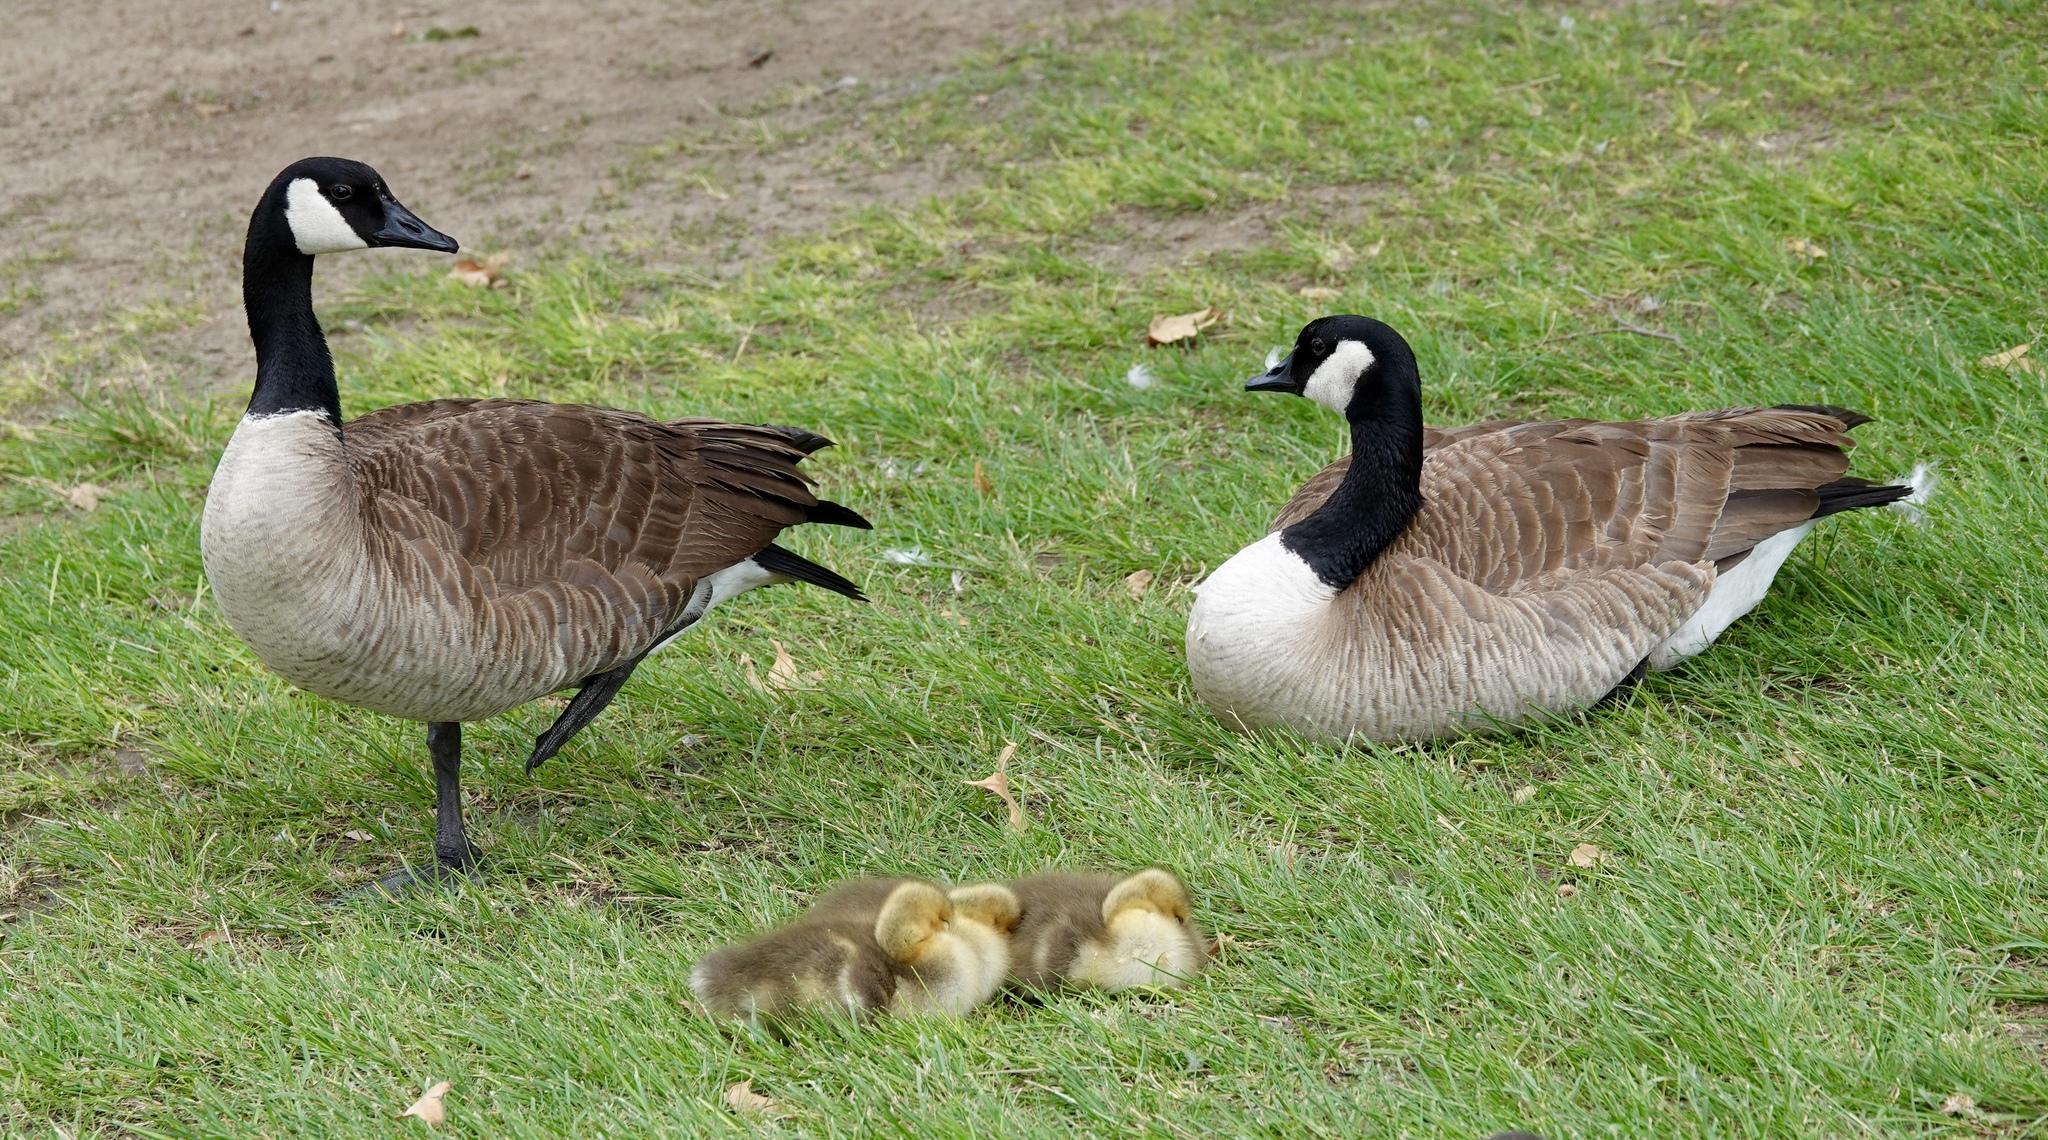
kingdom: Animalia
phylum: Chordata
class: Aves
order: Anseriformes
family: Anatidae
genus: Branta
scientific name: Branta canadensis
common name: Canada goose
